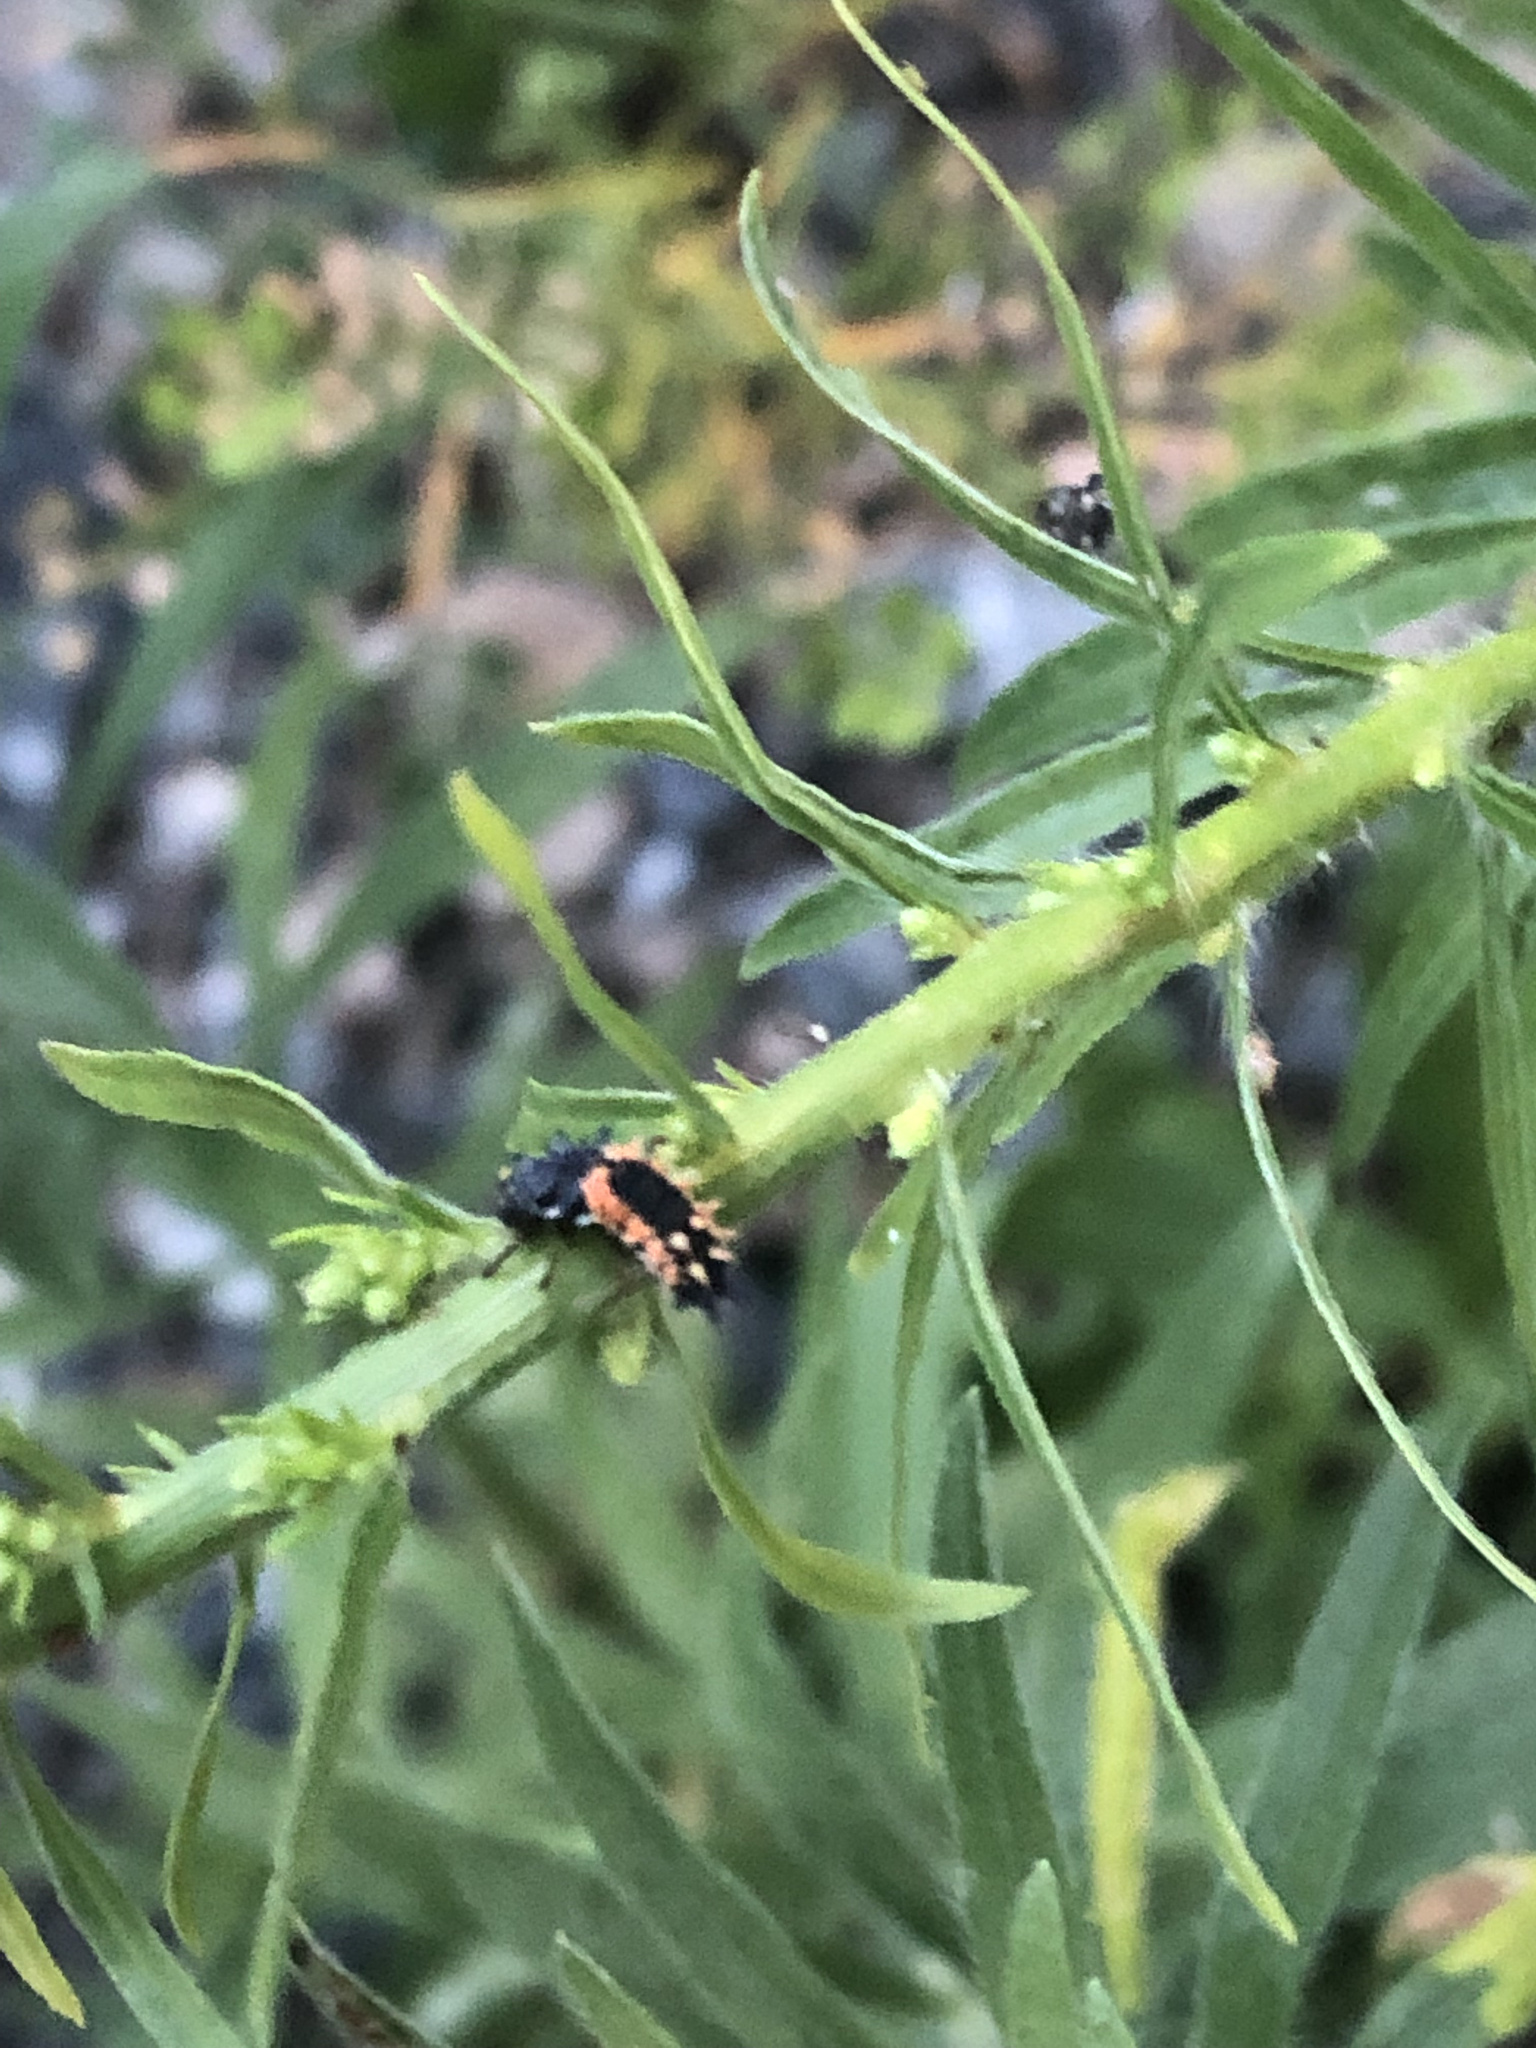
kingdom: Animalia
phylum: Arthropoda
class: Insecta
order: Coleoptera
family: Coccinellidae
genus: Harmonia
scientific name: Harmonia axyridis
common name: Harlequin ladybird
